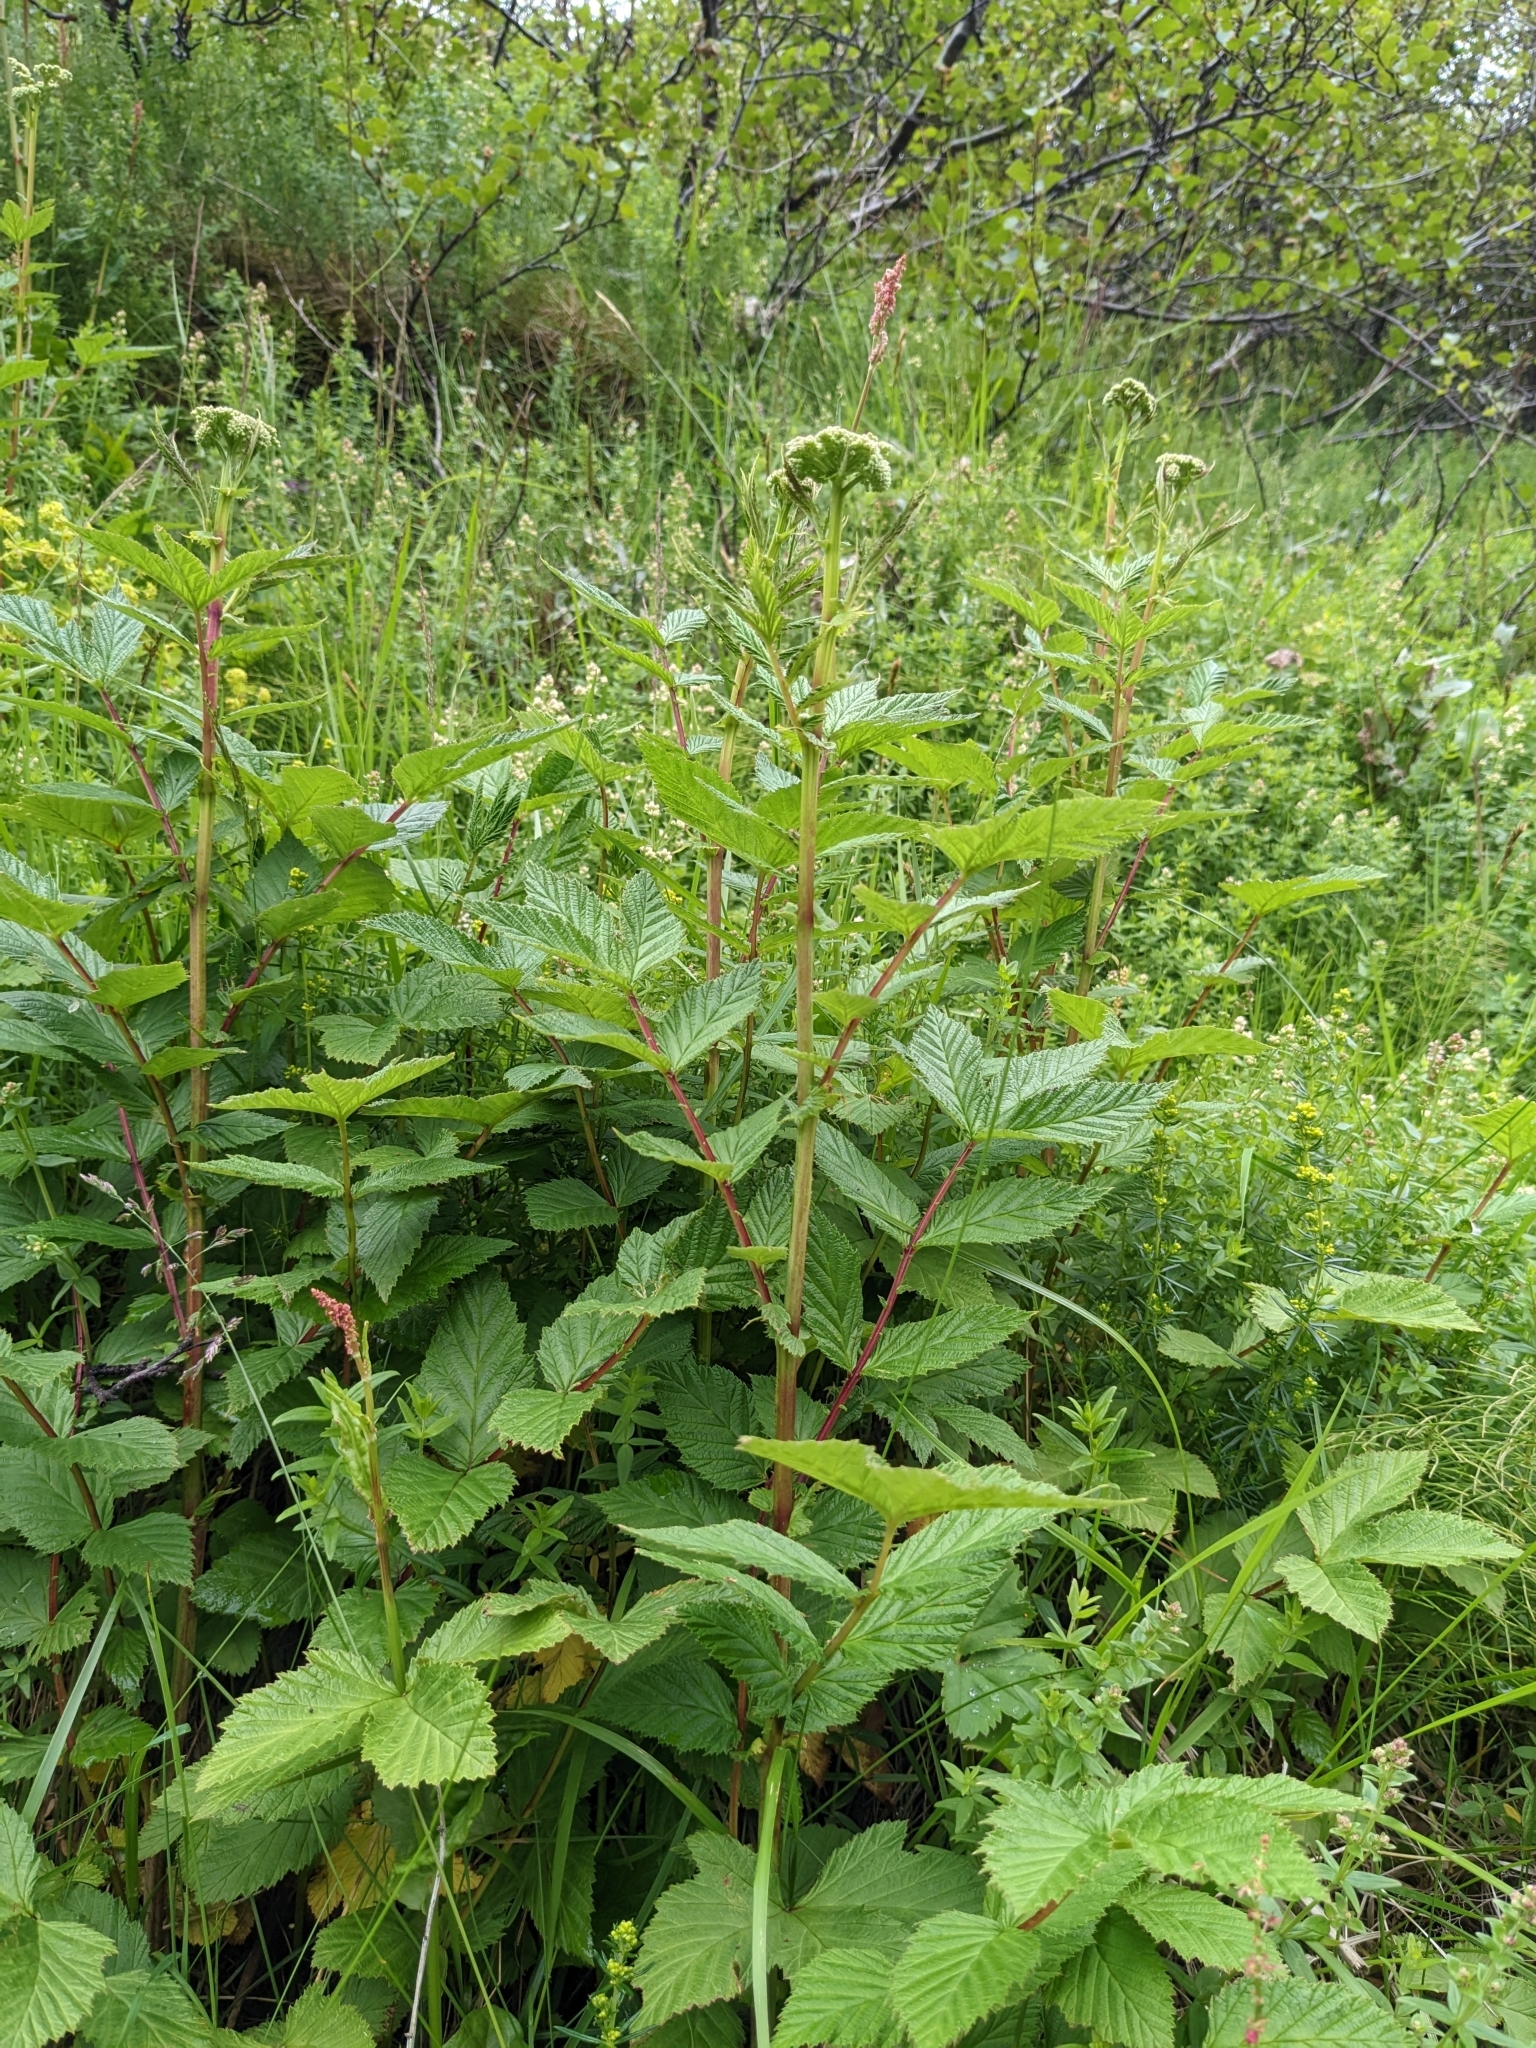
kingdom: Plantae
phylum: Tracheophyta
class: Magnoliopsida
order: Rosales
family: Rosaceae
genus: Filipendula
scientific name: Filipendula ulmaria
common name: Meadowsweet
